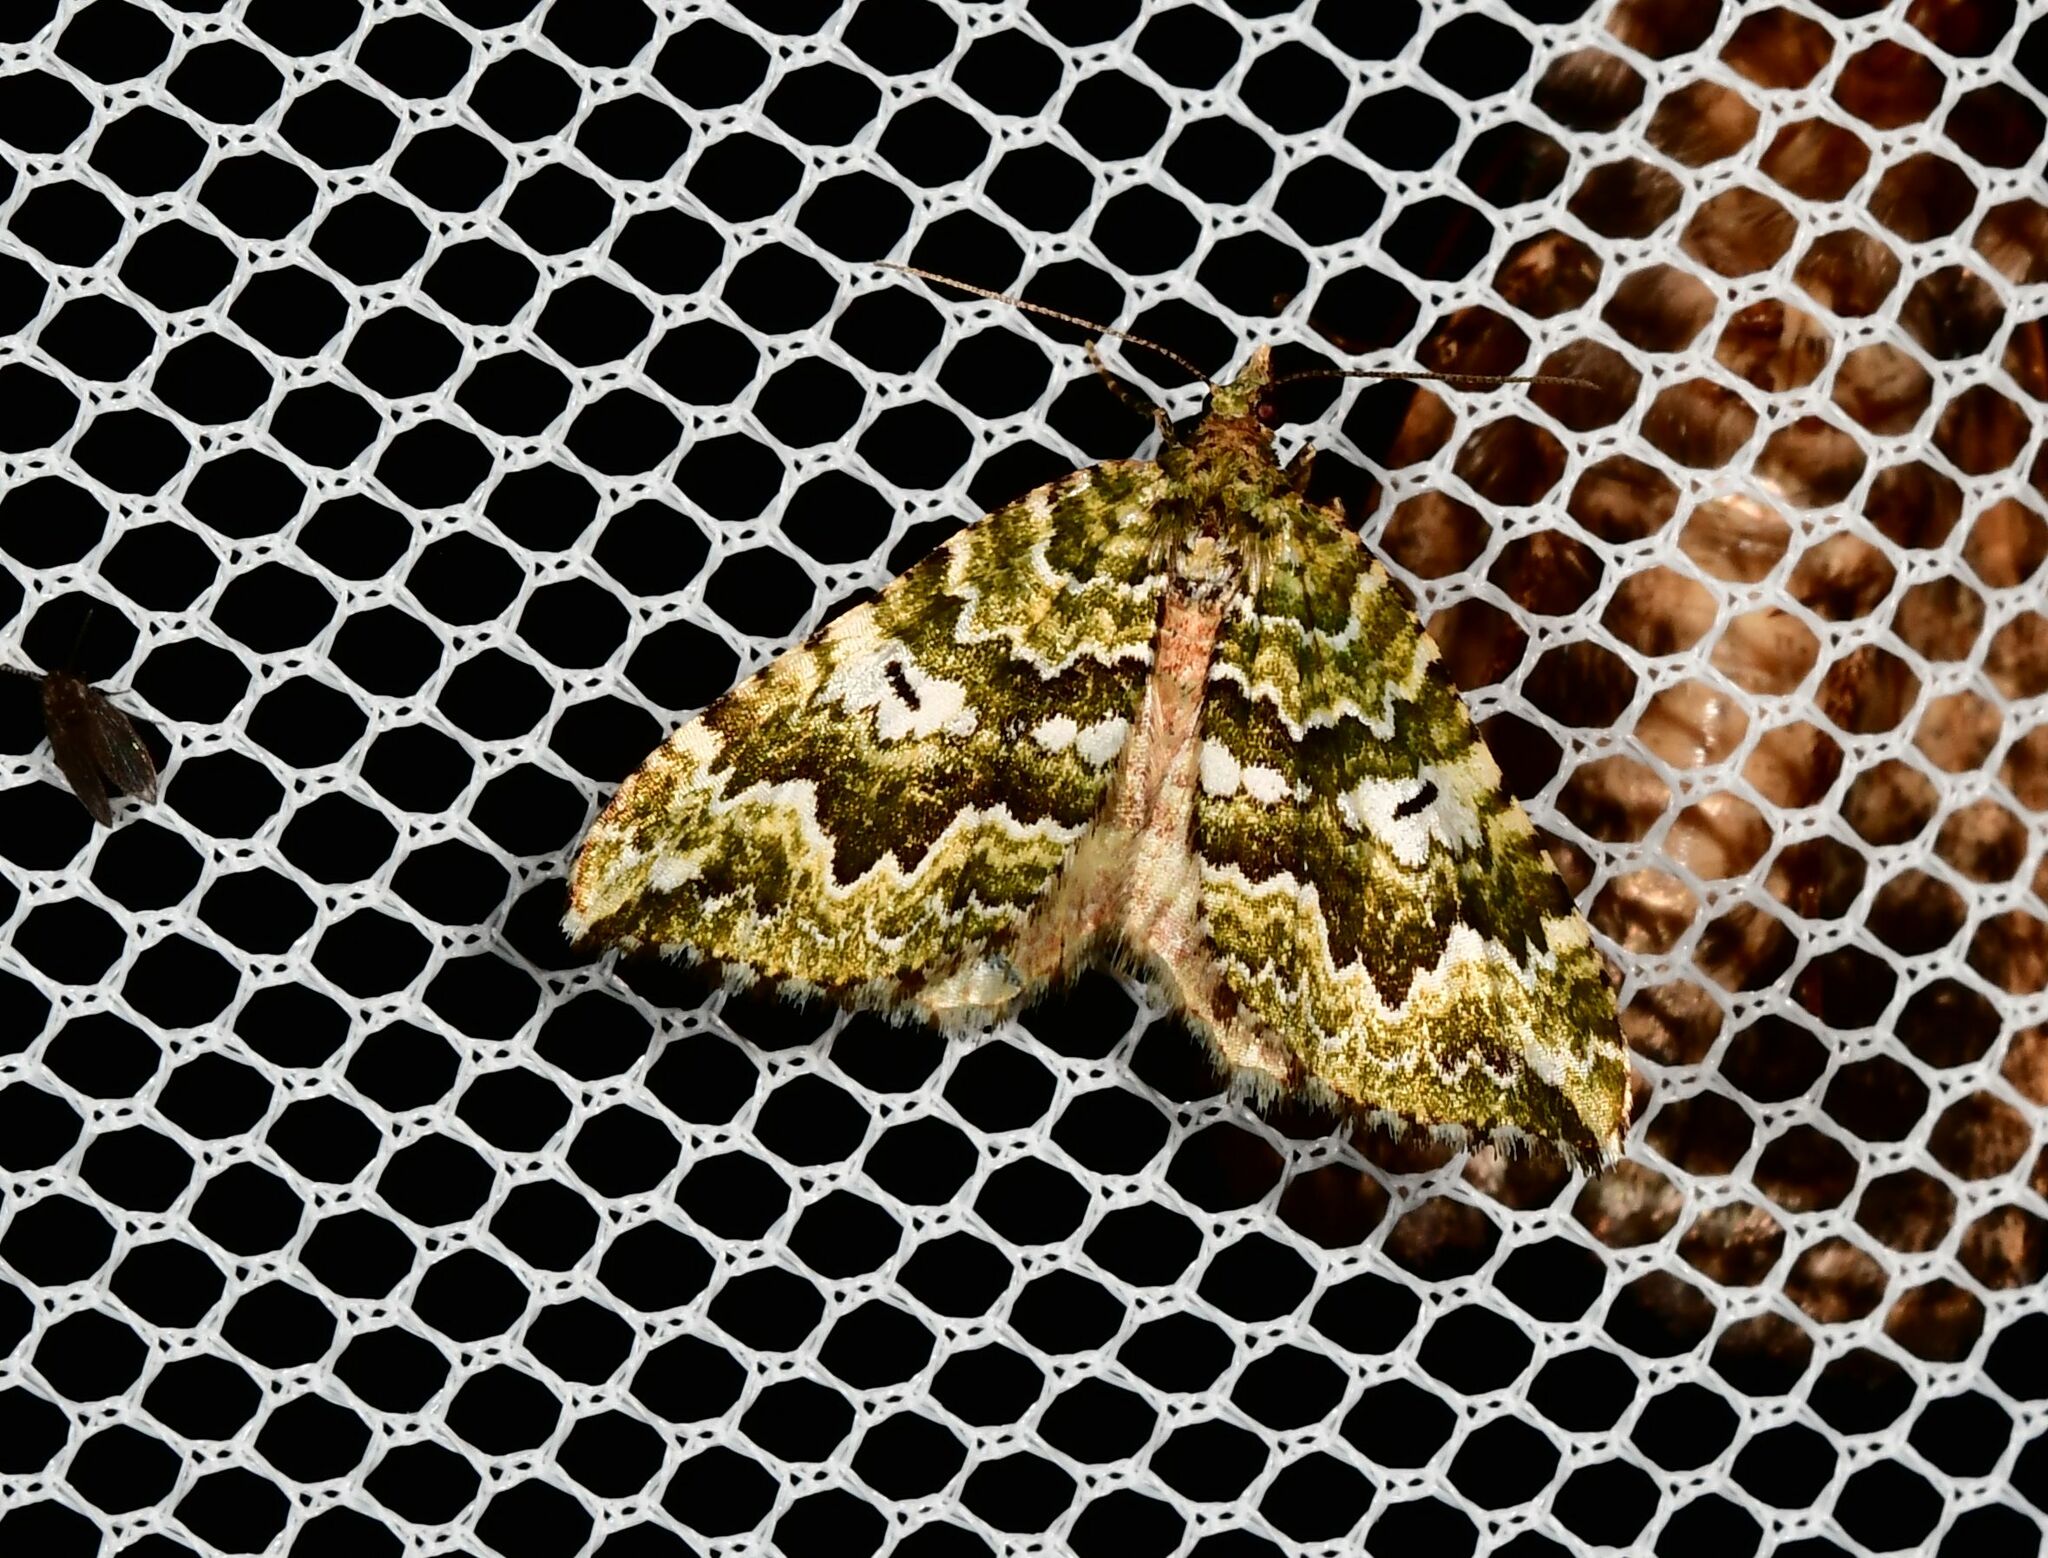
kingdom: Animalia
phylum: Arthropoda
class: Insecta
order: Lepidoptera
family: Geometridae
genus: Asaphodes
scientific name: Asaphodes beata
